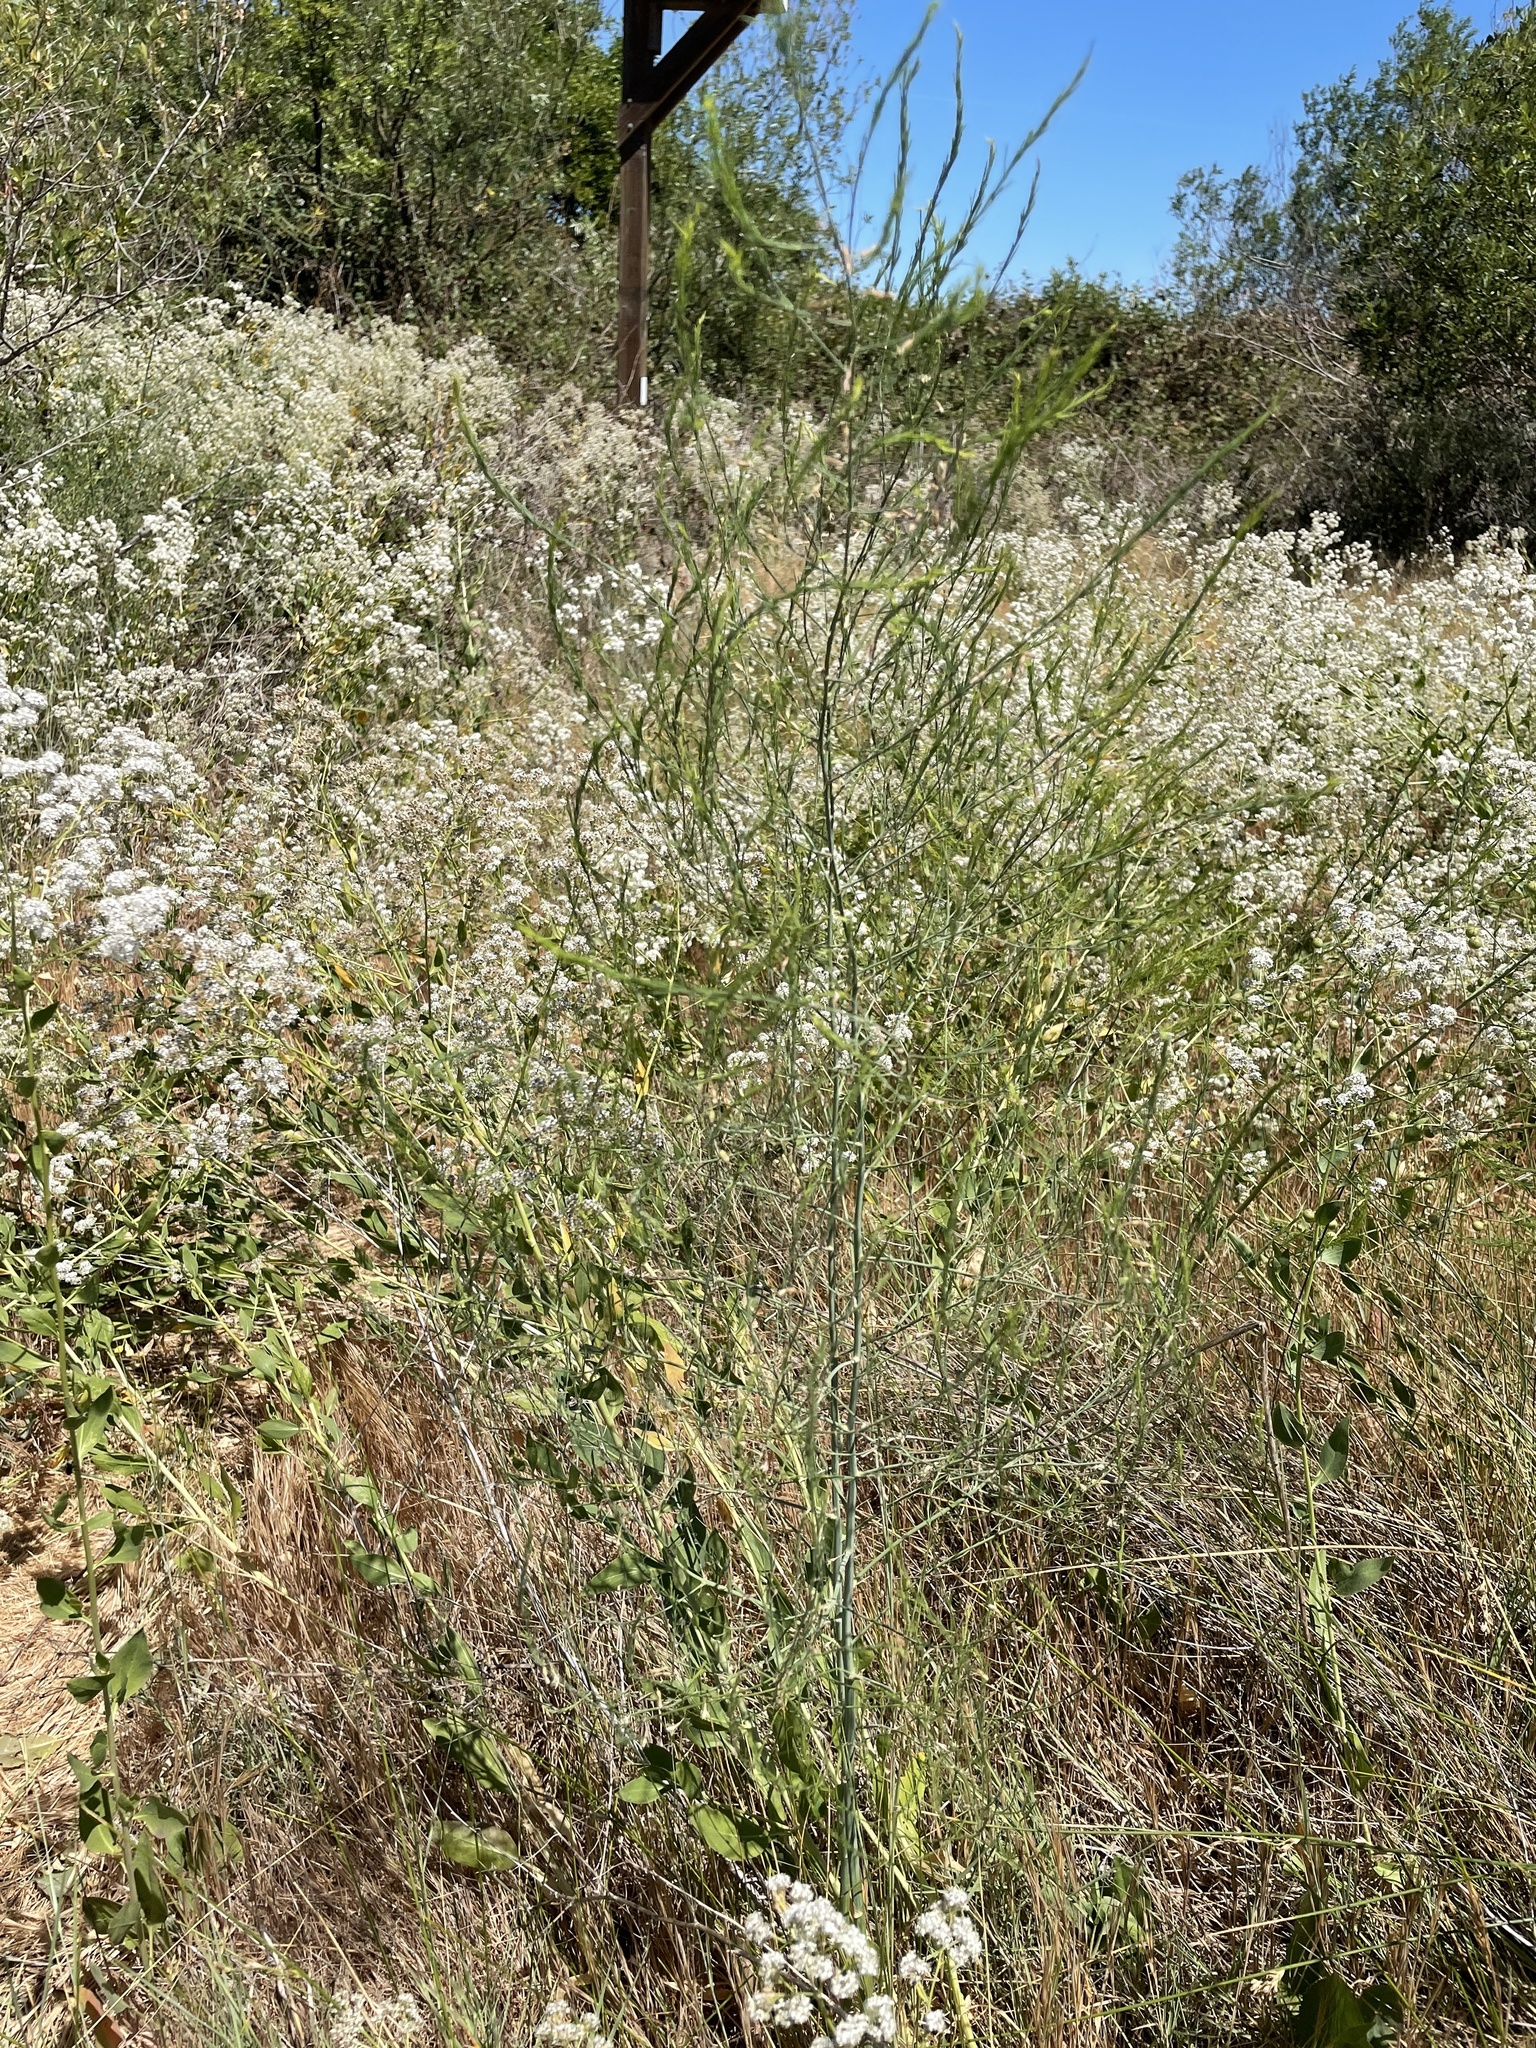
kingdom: Plantae
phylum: Tracheophyta
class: Liliopsida
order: Asparagales
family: Asparagaceae
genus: Asparagus
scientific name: Asparagus officinalis
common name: Garden asparagus
